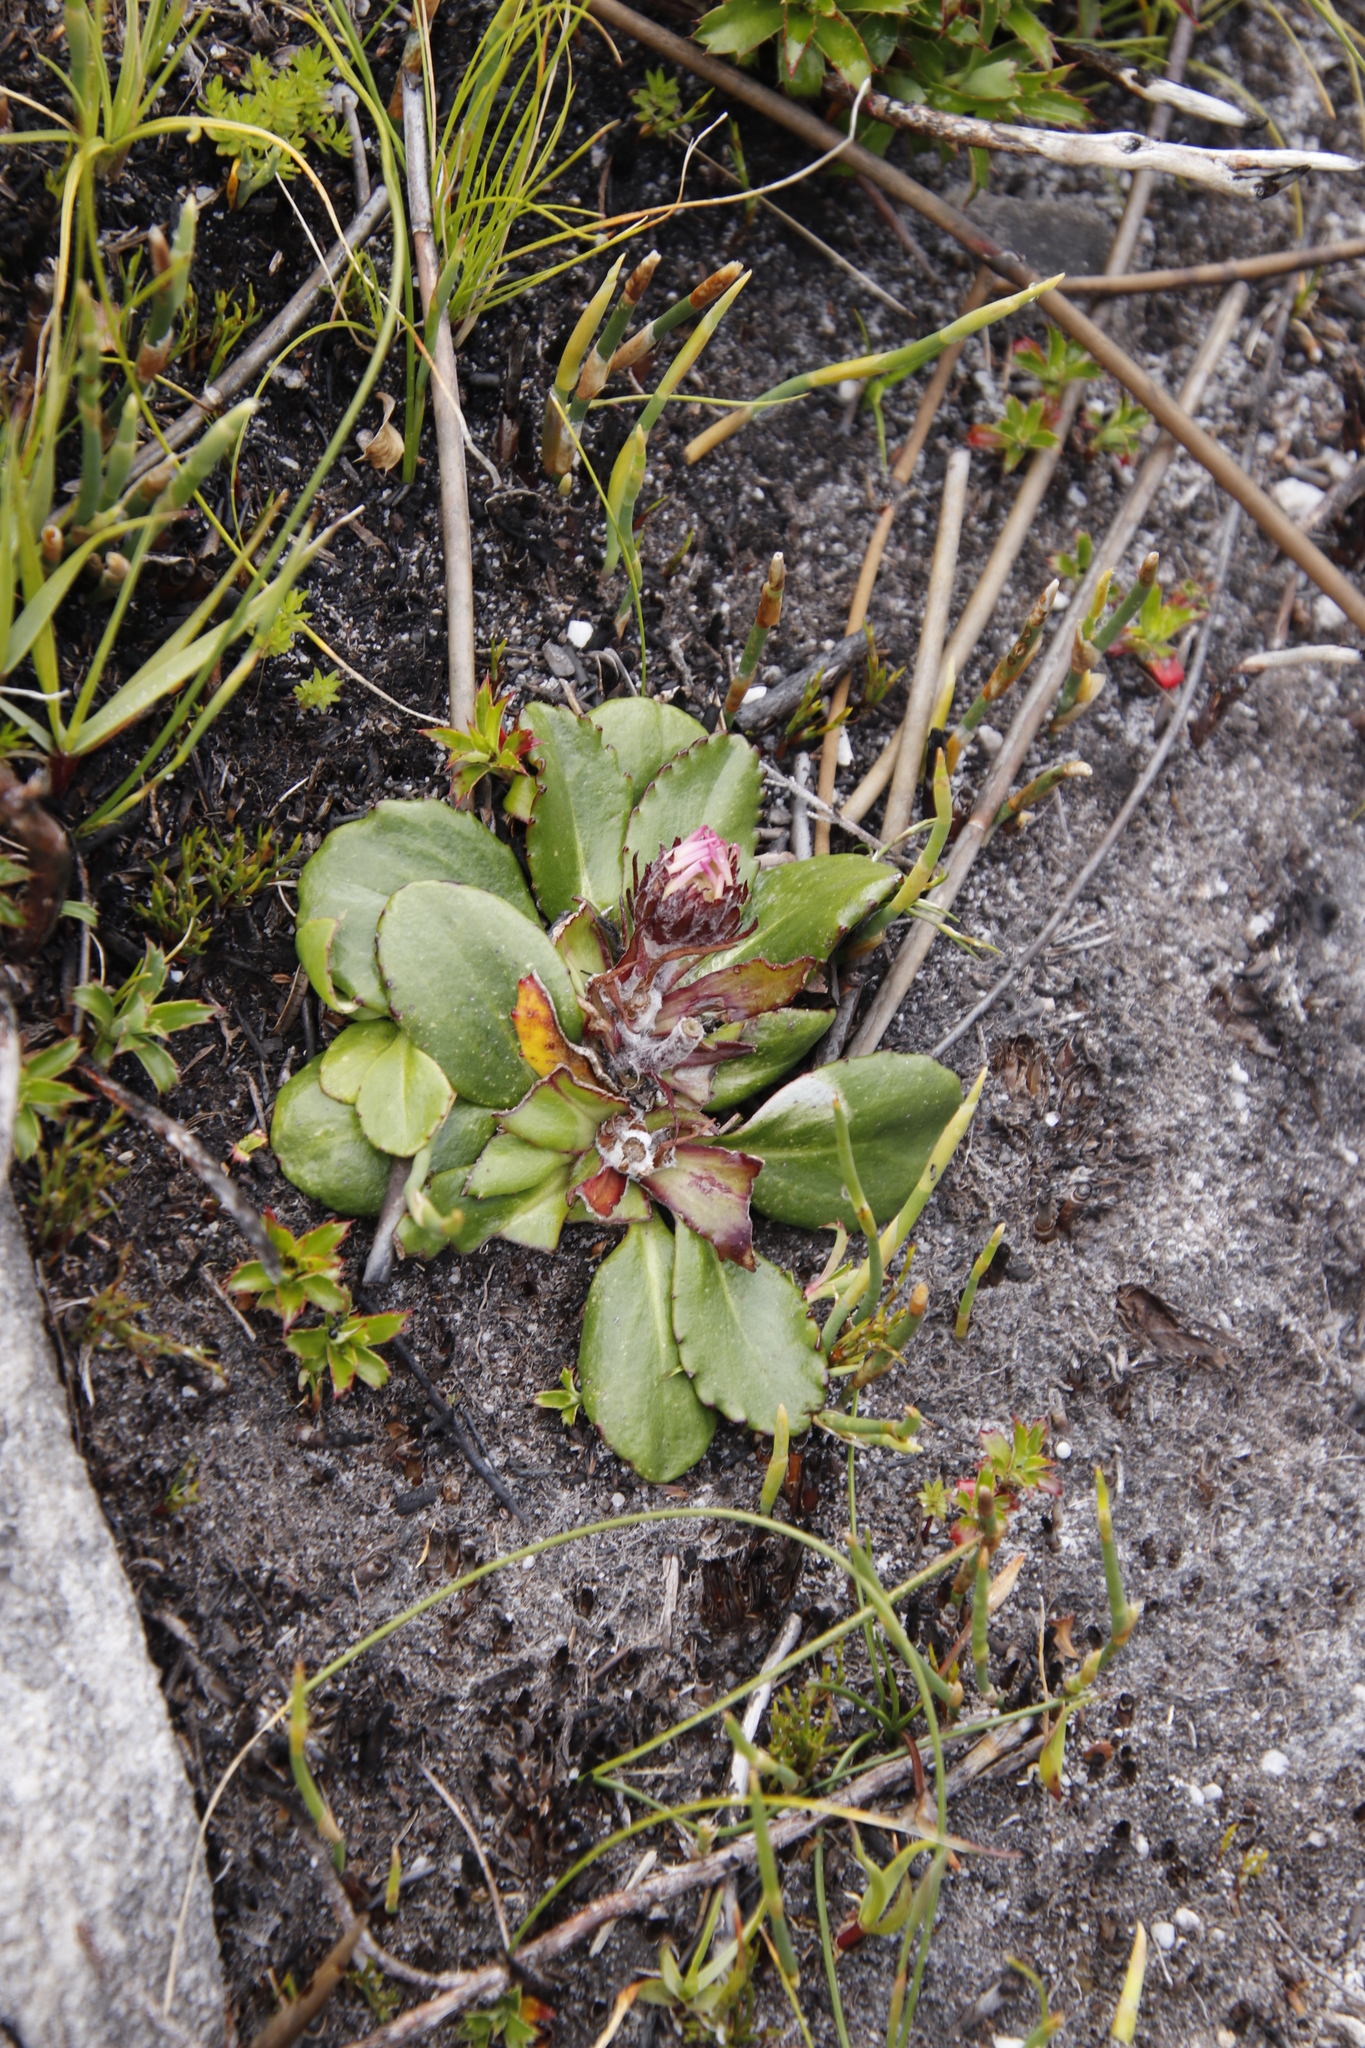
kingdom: Plantae
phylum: Tracheophyta
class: Magnoliopsida
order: Asterales
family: Asteraceae
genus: Zyrphelis
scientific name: Zyrphelis crenata
